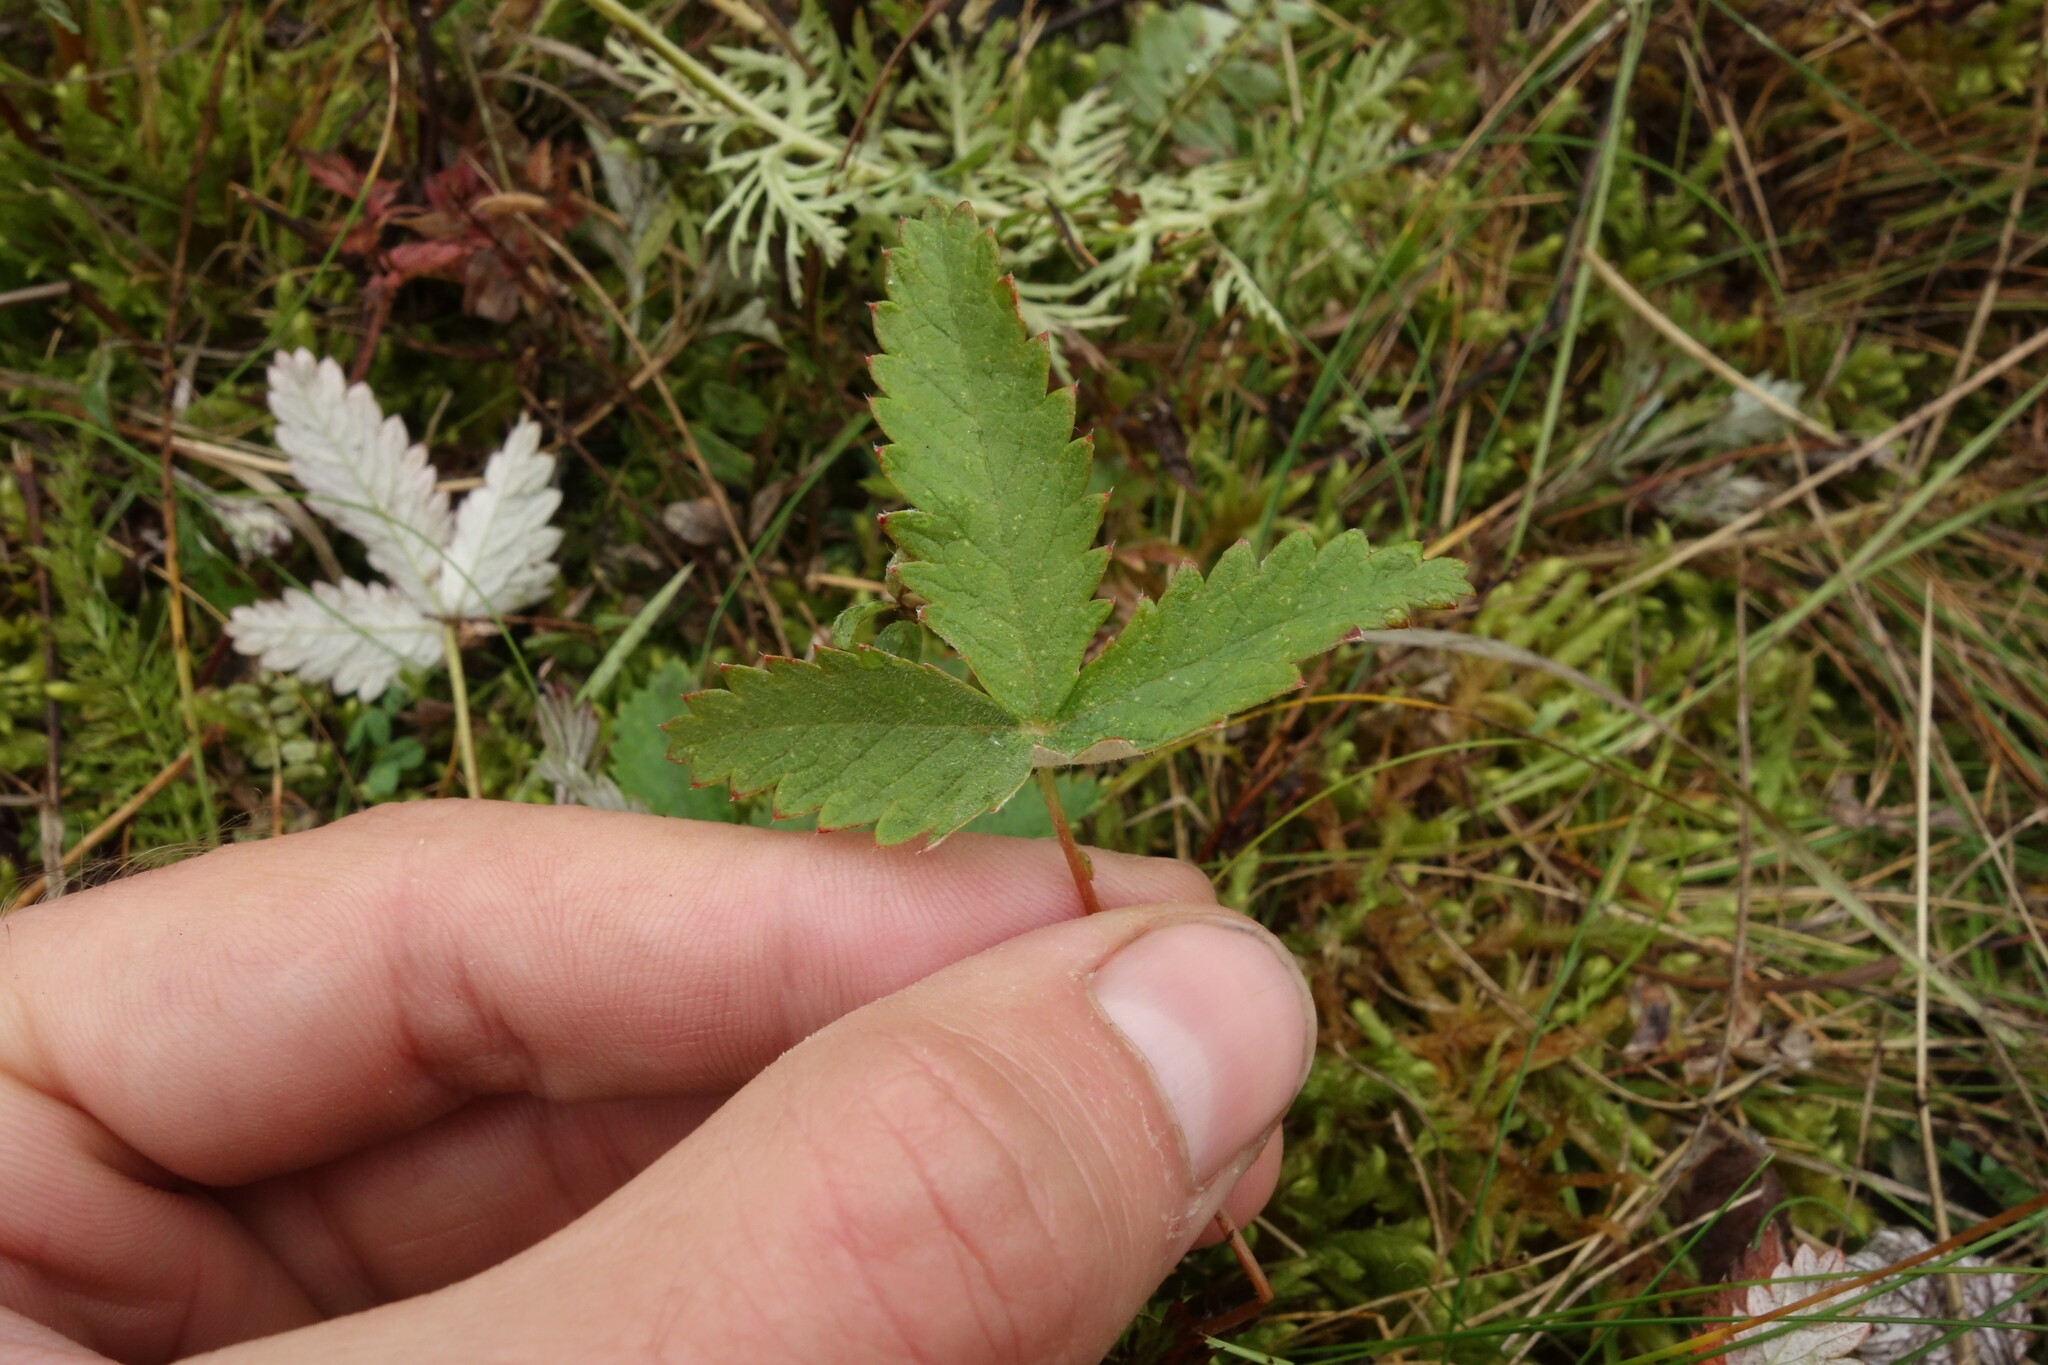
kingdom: Plantae
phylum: Tracheophyta
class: Magnoliopsida
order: Rosales
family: Rosaceae
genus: Potentilla
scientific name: Potentilla crebridens
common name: Congested cinquefoil
